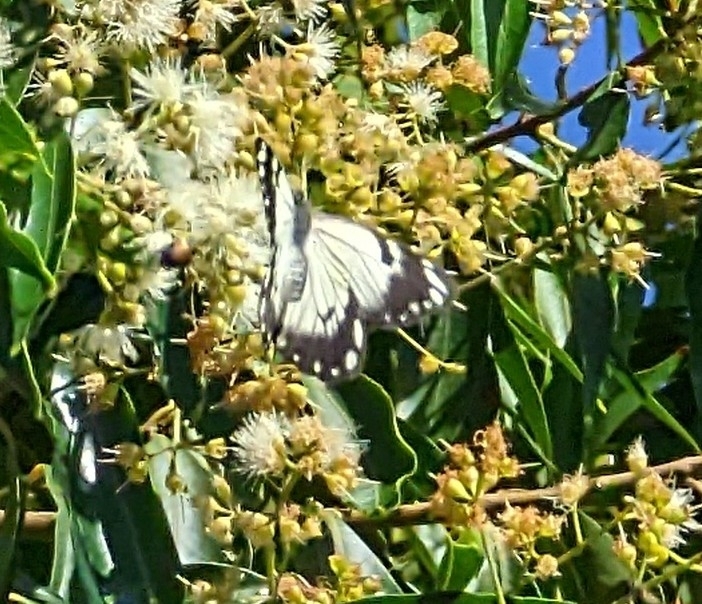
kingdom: Animalia
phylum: Arthropoda
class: Insecta
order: Lepidoptera
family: Pieridae
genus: Belenois
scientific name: Belenois java
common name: Caper white
